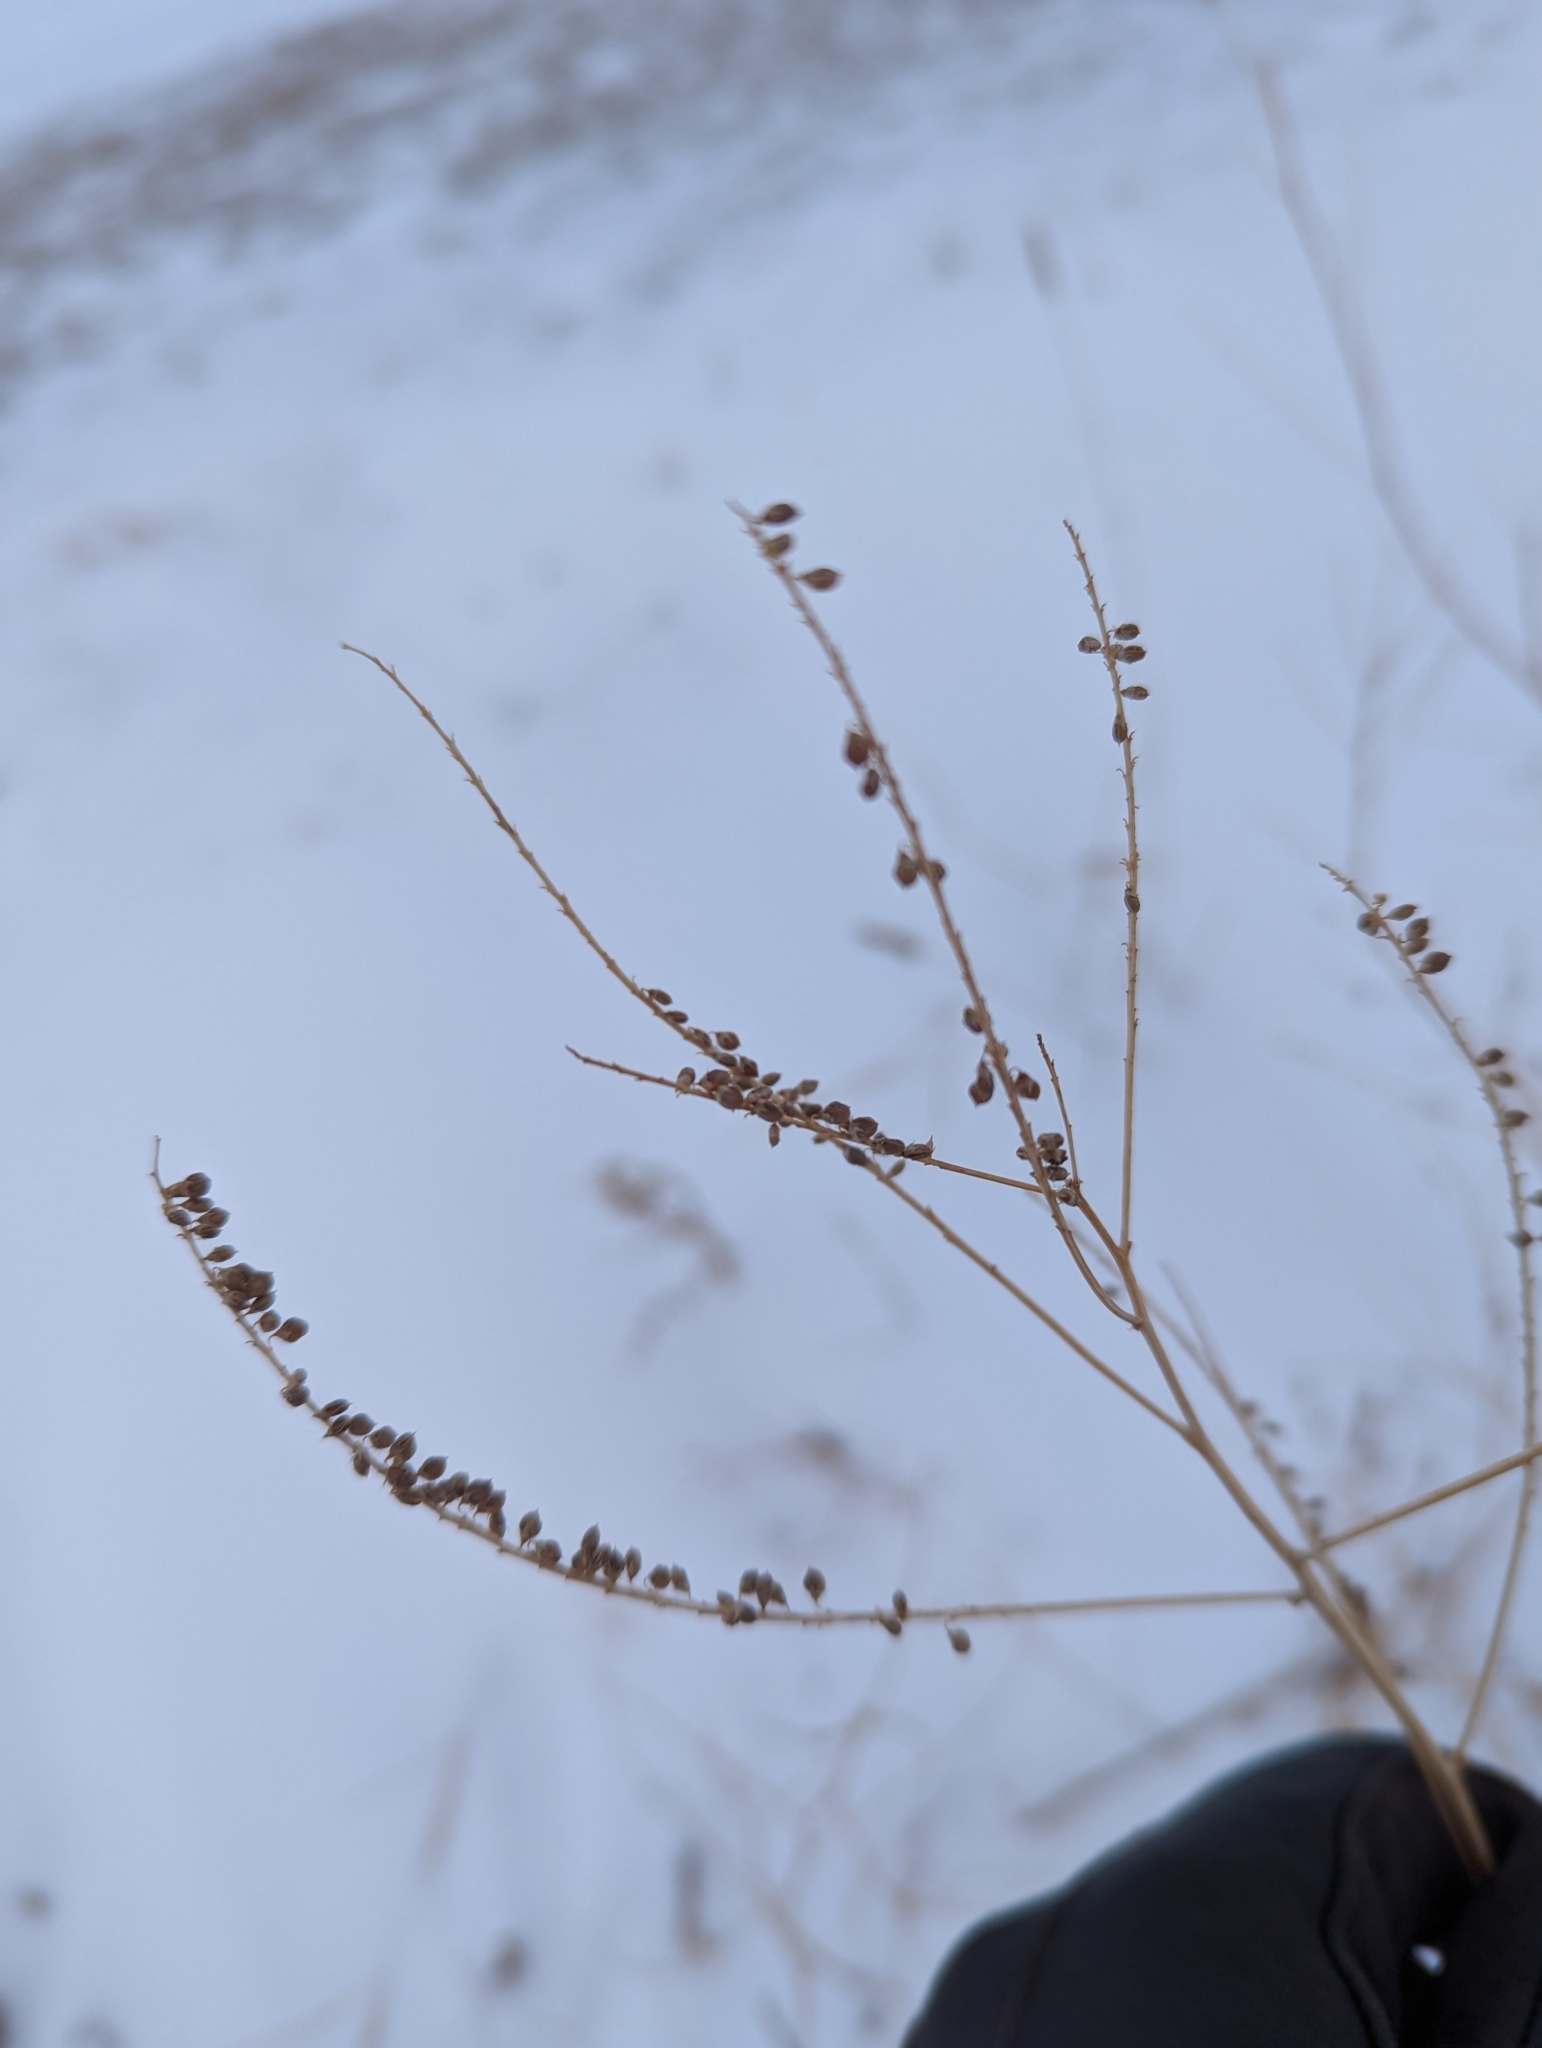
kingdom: Plantae
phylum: Tracheophyta
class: Magnoliopsida
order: Fabales
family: Fabaceae
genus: Melilotus
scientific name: Melilotus
